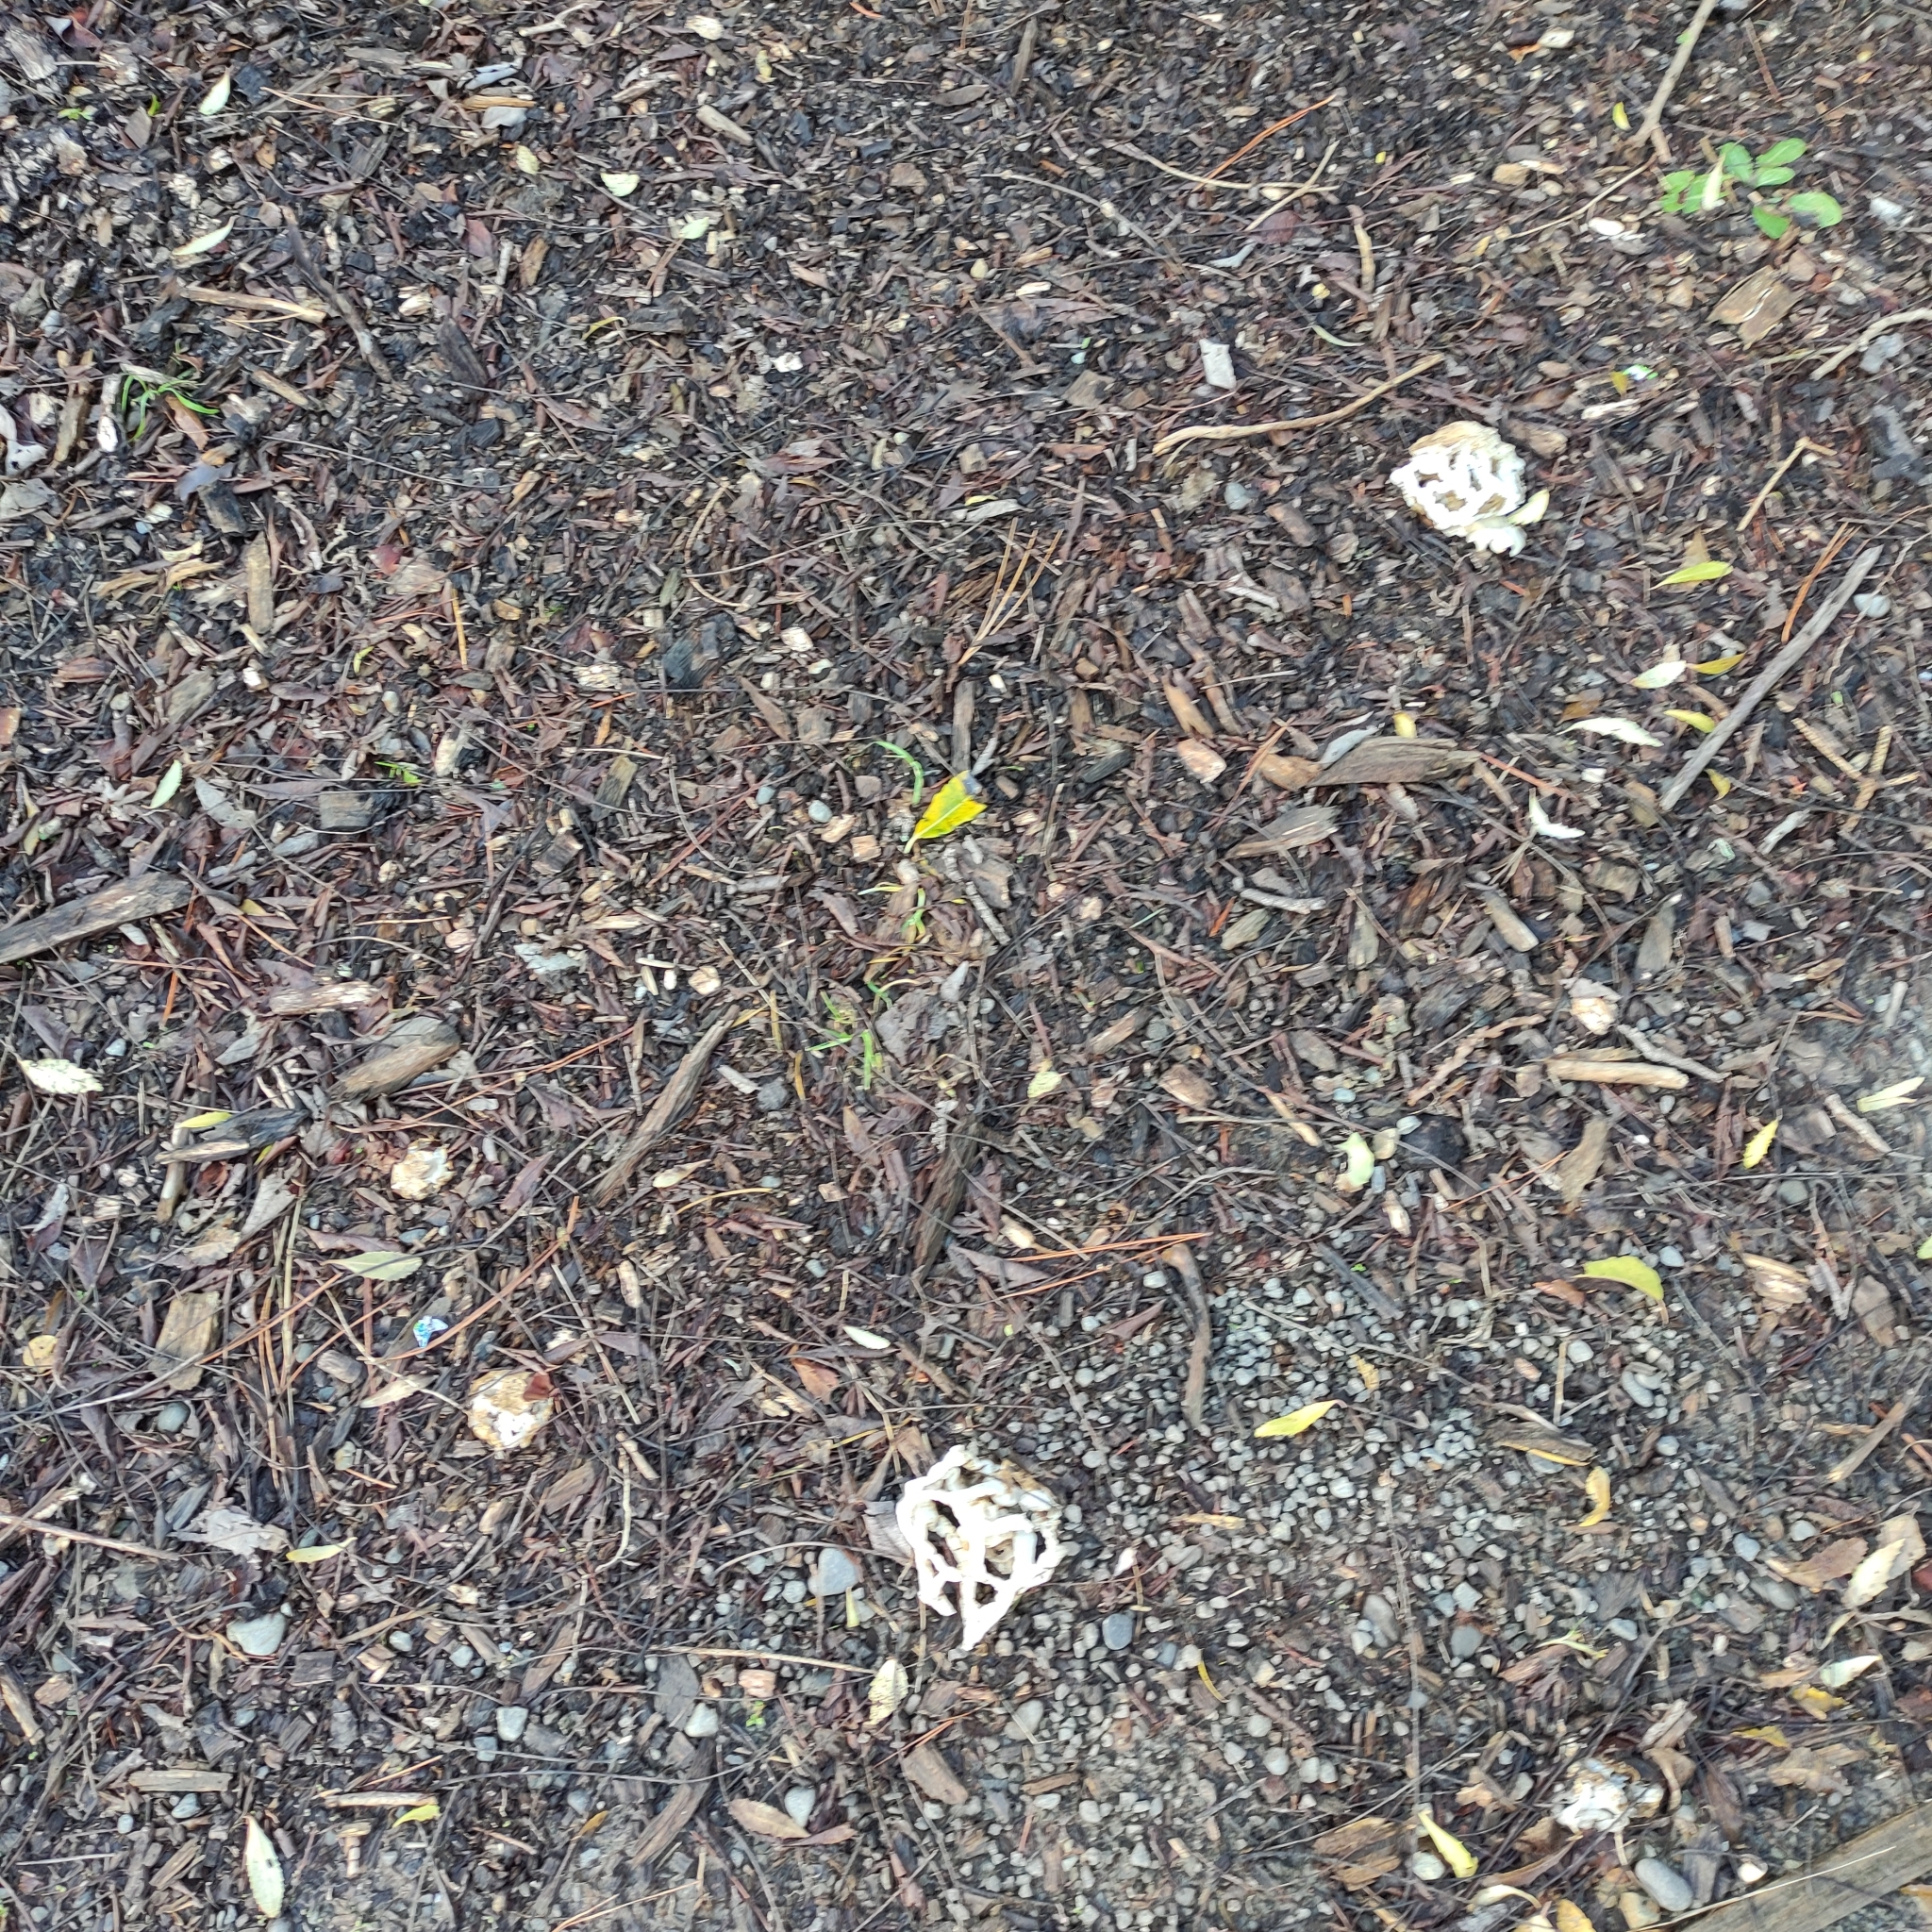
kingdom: Fungi
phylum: Basidiomycota
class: Agaricomycetes
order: Phallales
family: Phallaceae
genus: Ileodictyon
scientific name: Ileodictyon cibarium
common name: Basket fungus
